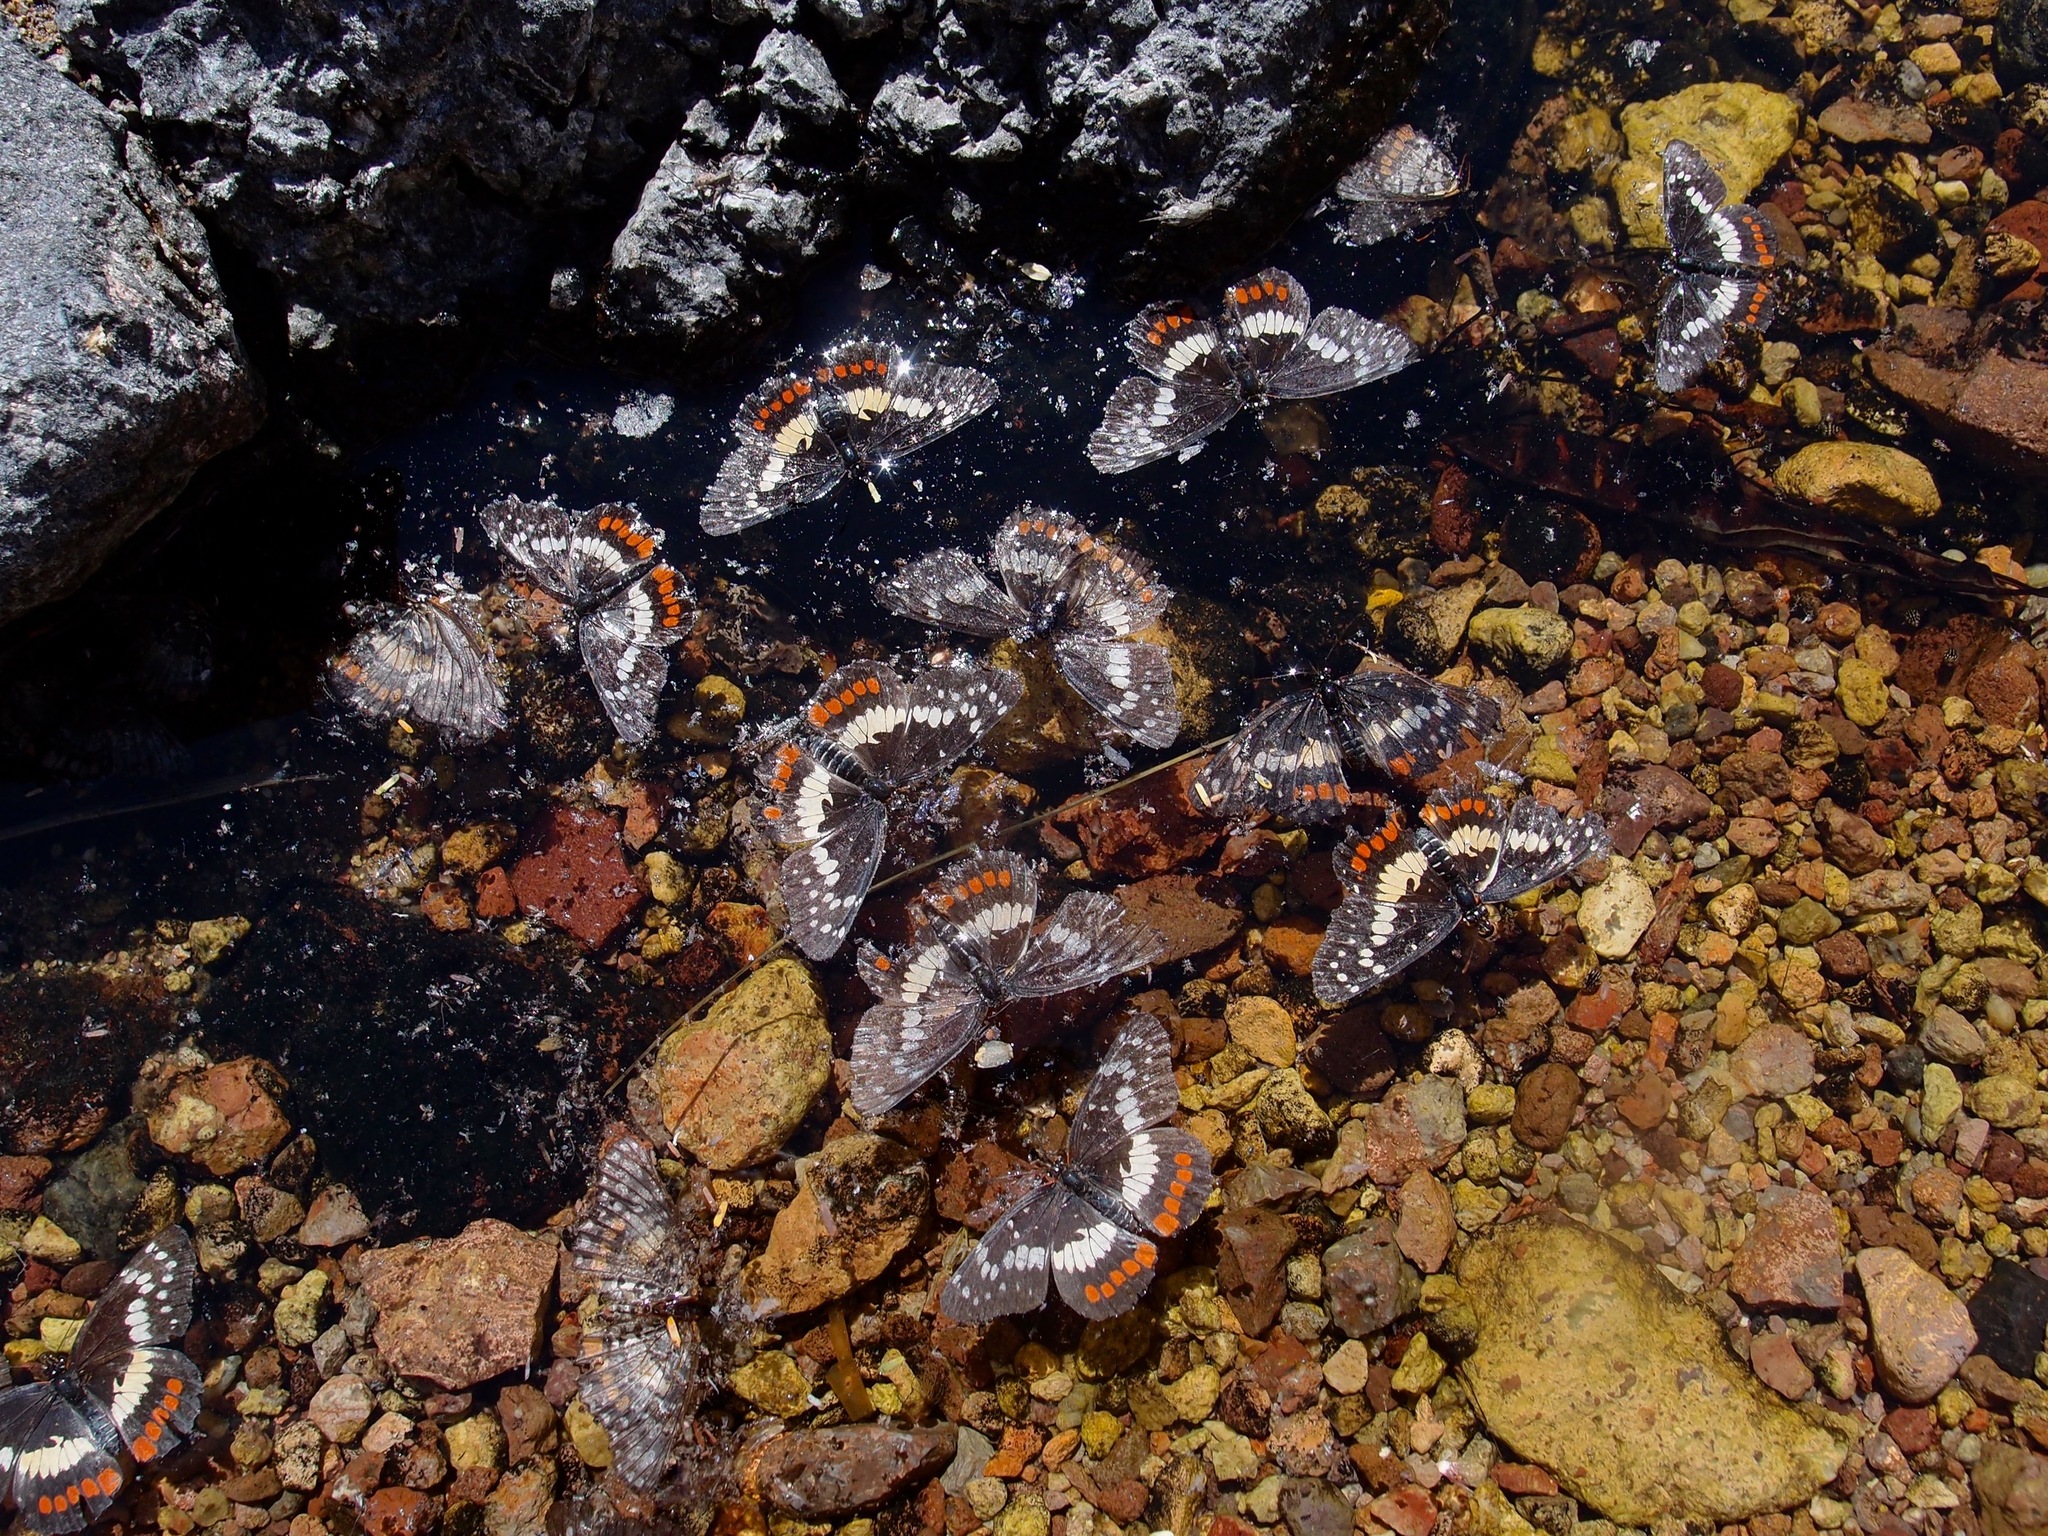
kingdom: Animalia
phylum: Arthropoda
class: Insecta
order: Lepidoptera
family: Nymphalidae
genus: Chlosyne
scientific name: Chlosyne eumeda
